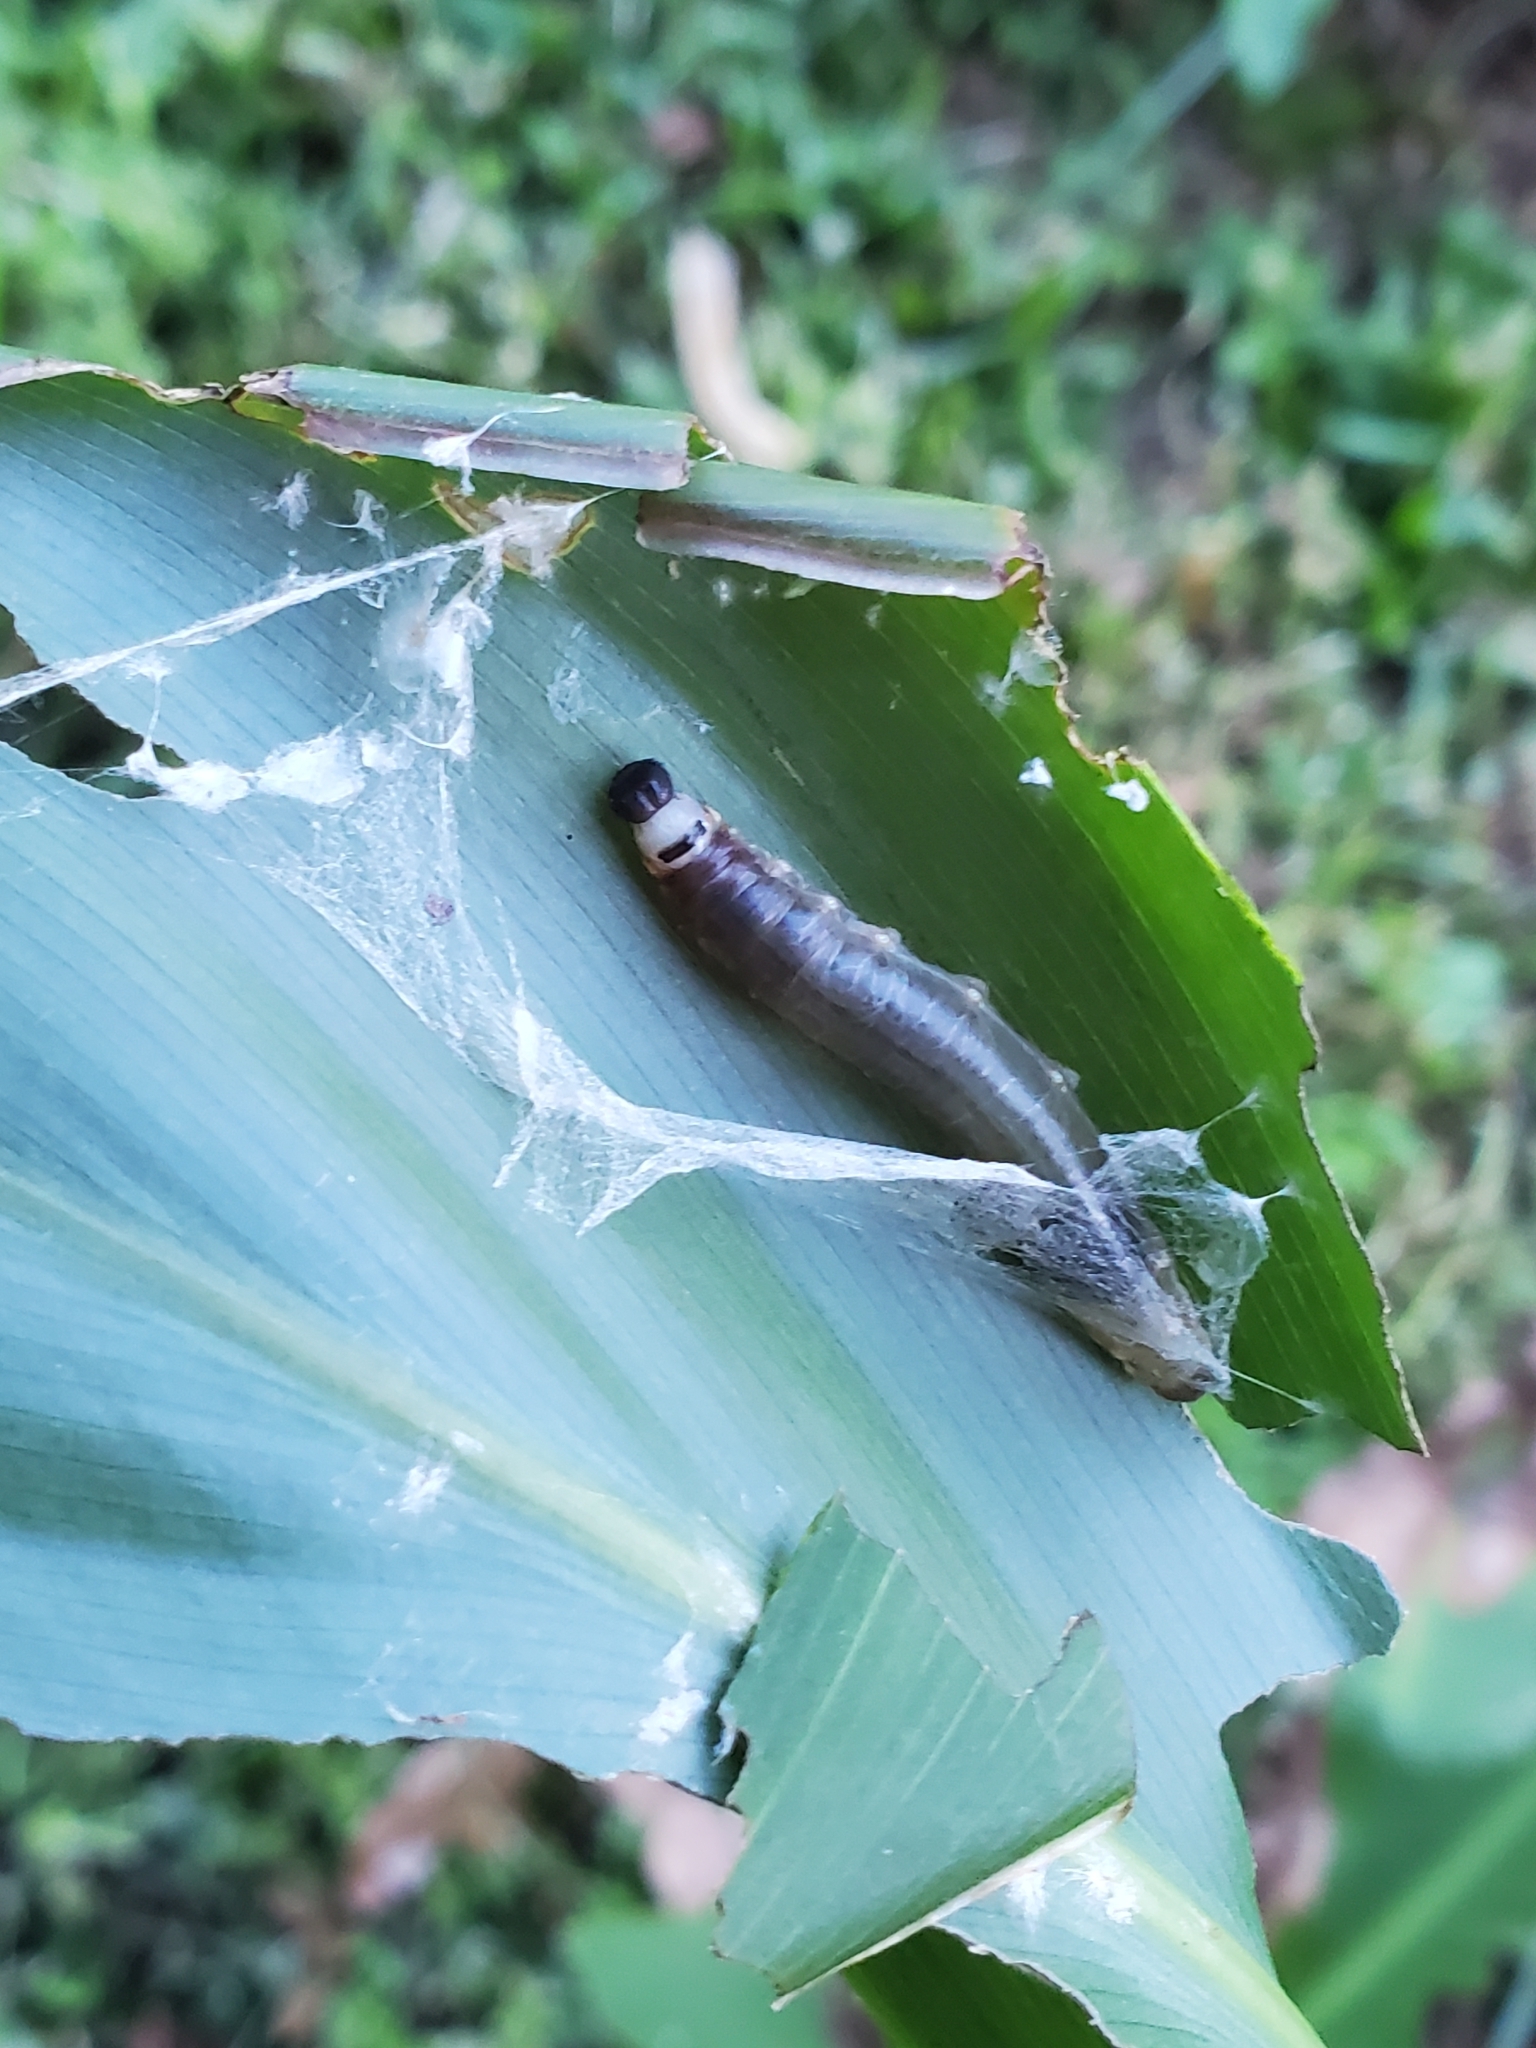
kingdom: Animalia
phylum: Arthropoda
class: Insecta
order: Lepidoptera
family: Hesperiidae
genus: Calpodes
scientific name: Calpodes ethlius
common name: Brazilian skipper
